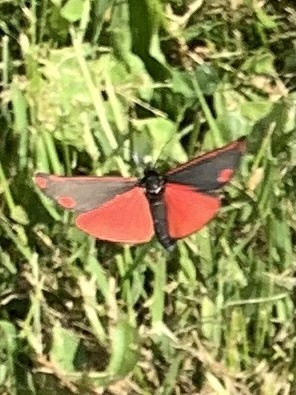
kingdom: Animalia
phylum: Arthropoda
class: Insecta
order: Lepidoptera
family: Erebidae
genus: Tyria
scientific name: Tyria jacobaeae
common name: Cinnabar
